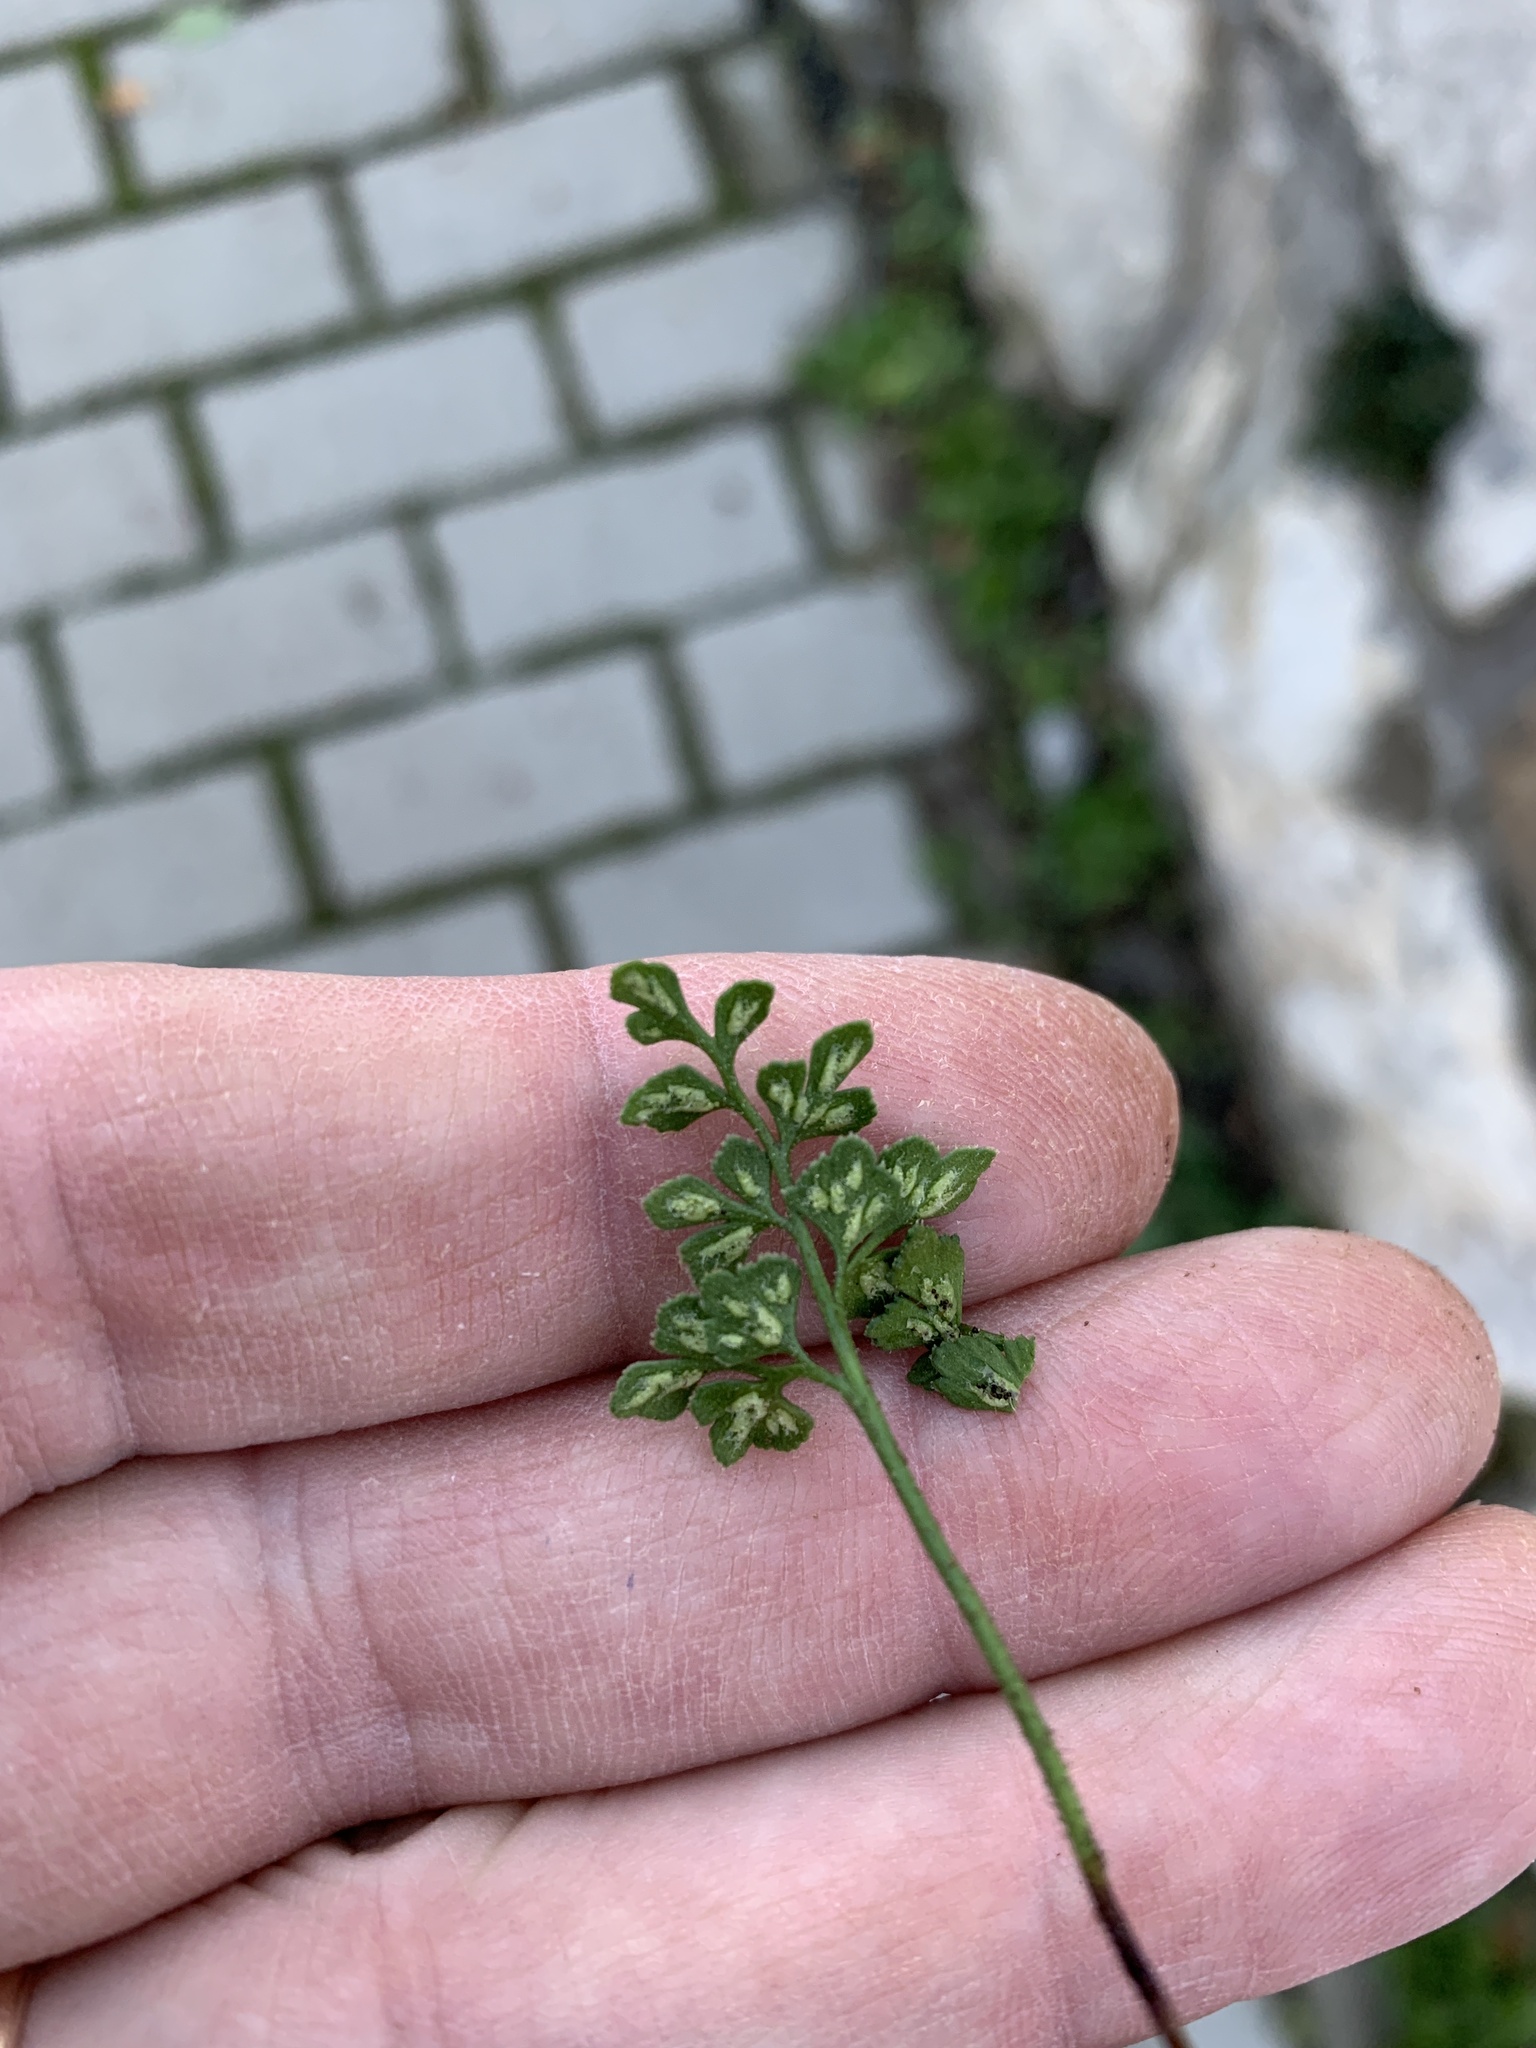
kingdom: Plantae
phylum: Tracheophyta
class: Polypodiopsida
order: Polypodiales
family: Aspleniaceae
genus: Asplenium
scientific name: Asplenium ruta-muraria
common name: Wall-rue
